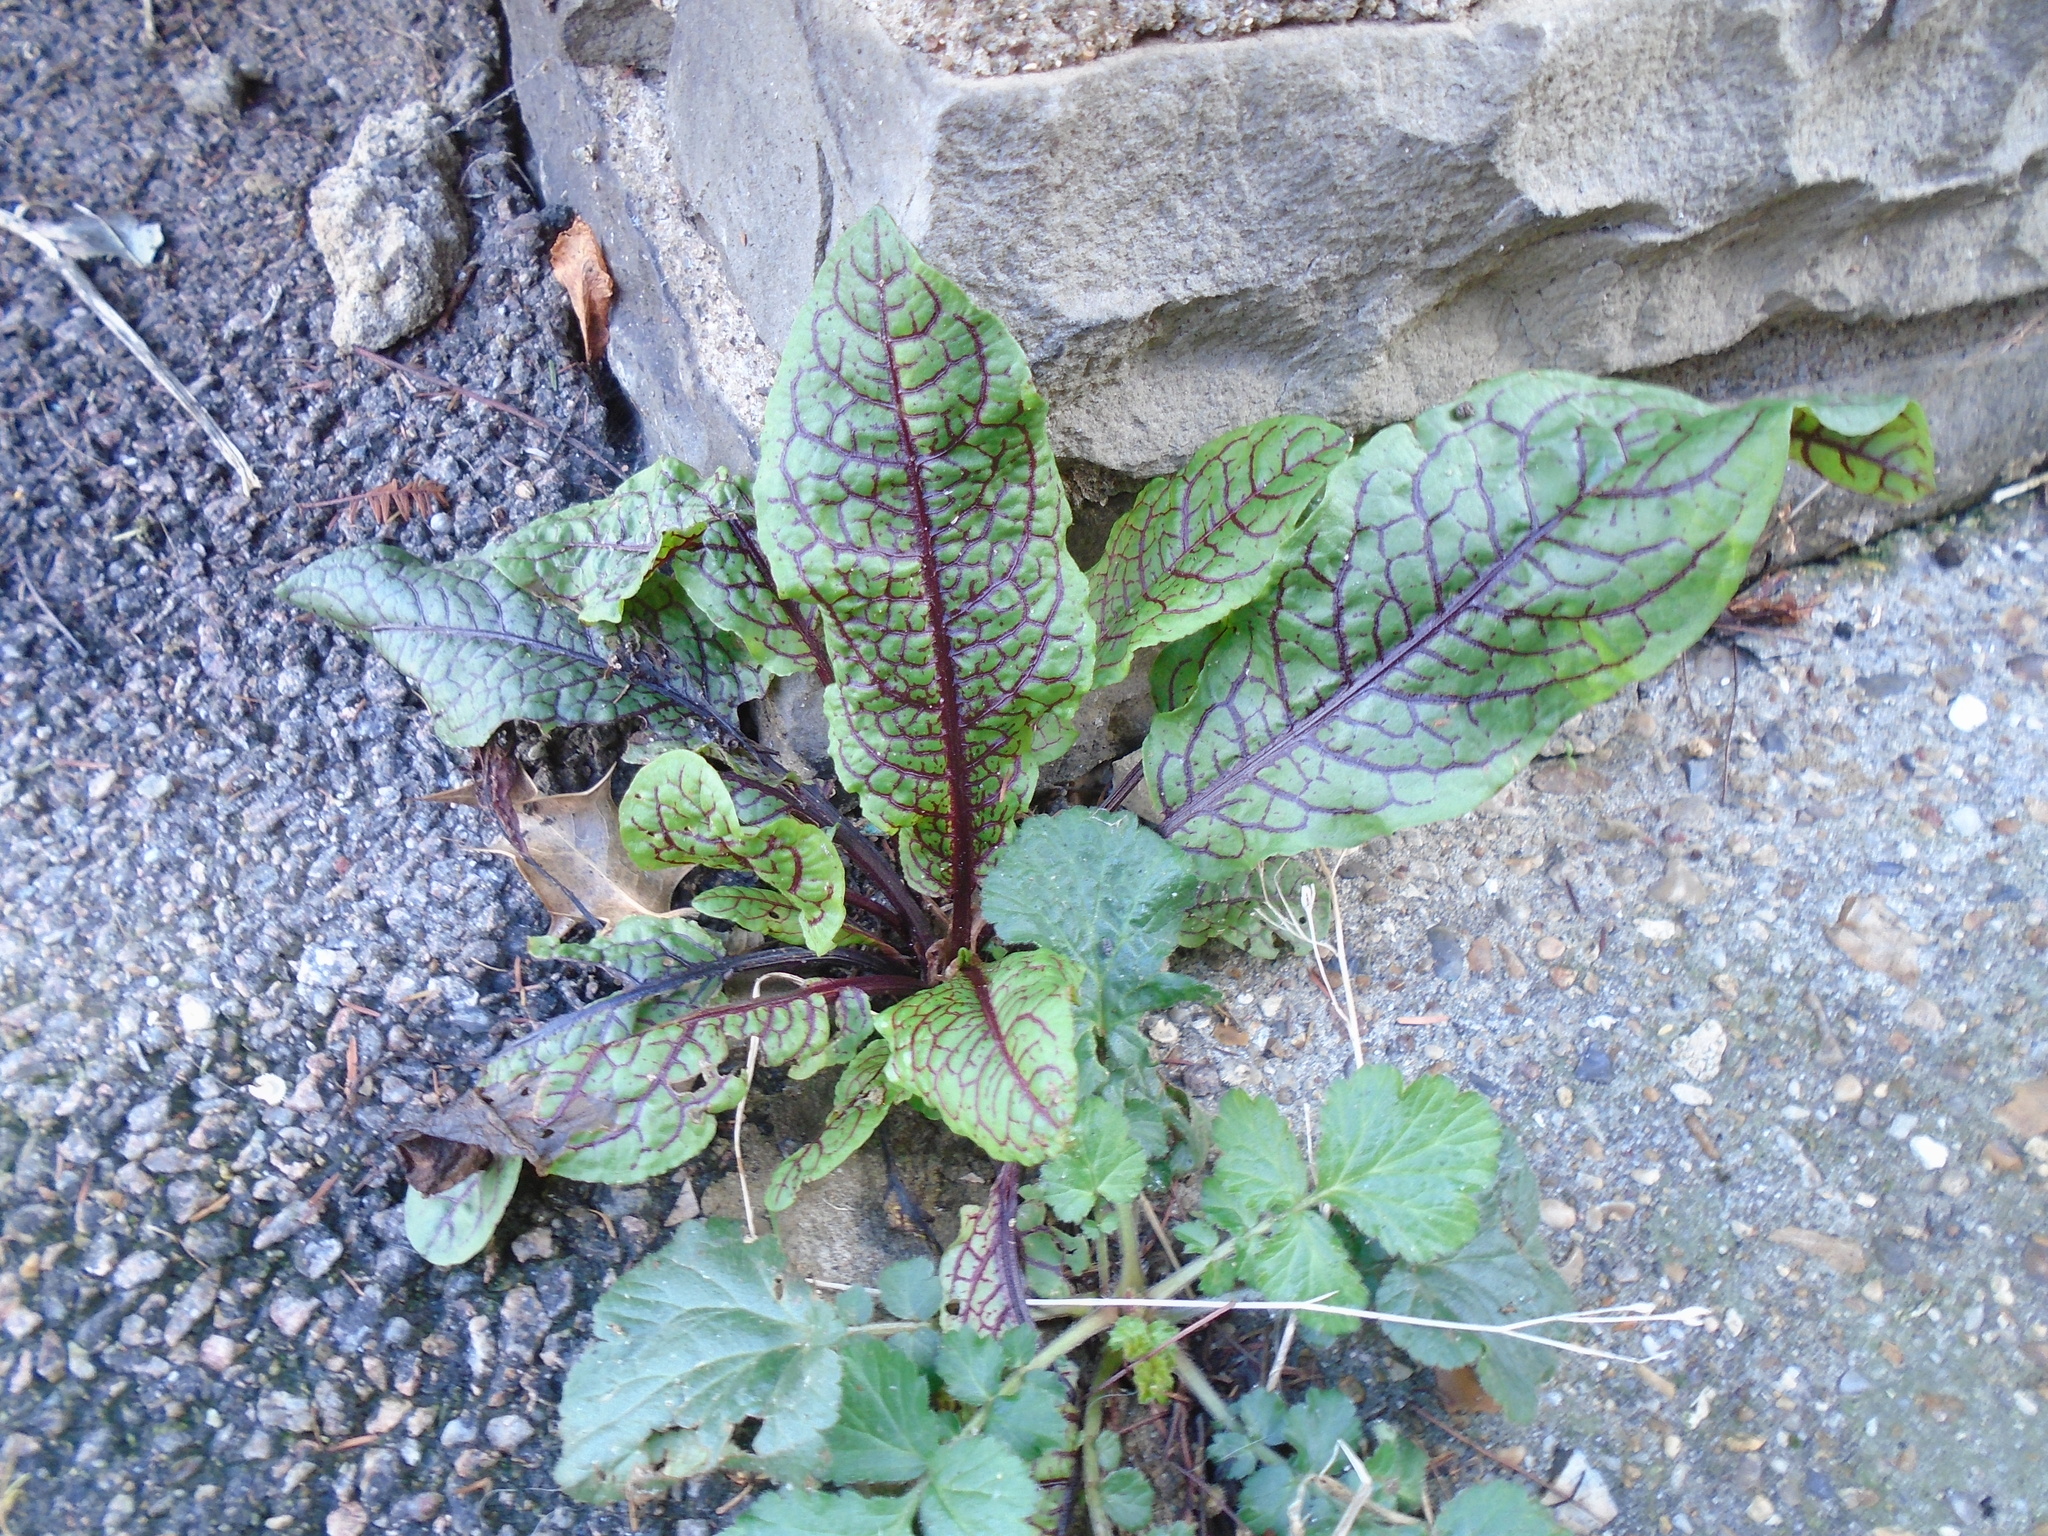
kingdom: Plantae
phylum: Tracheophyta
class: Magnoliopsida
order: Caryophyllales
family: Polygonaceae
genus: Rumex
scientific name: Rumex sanguineus
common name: Wood dock
